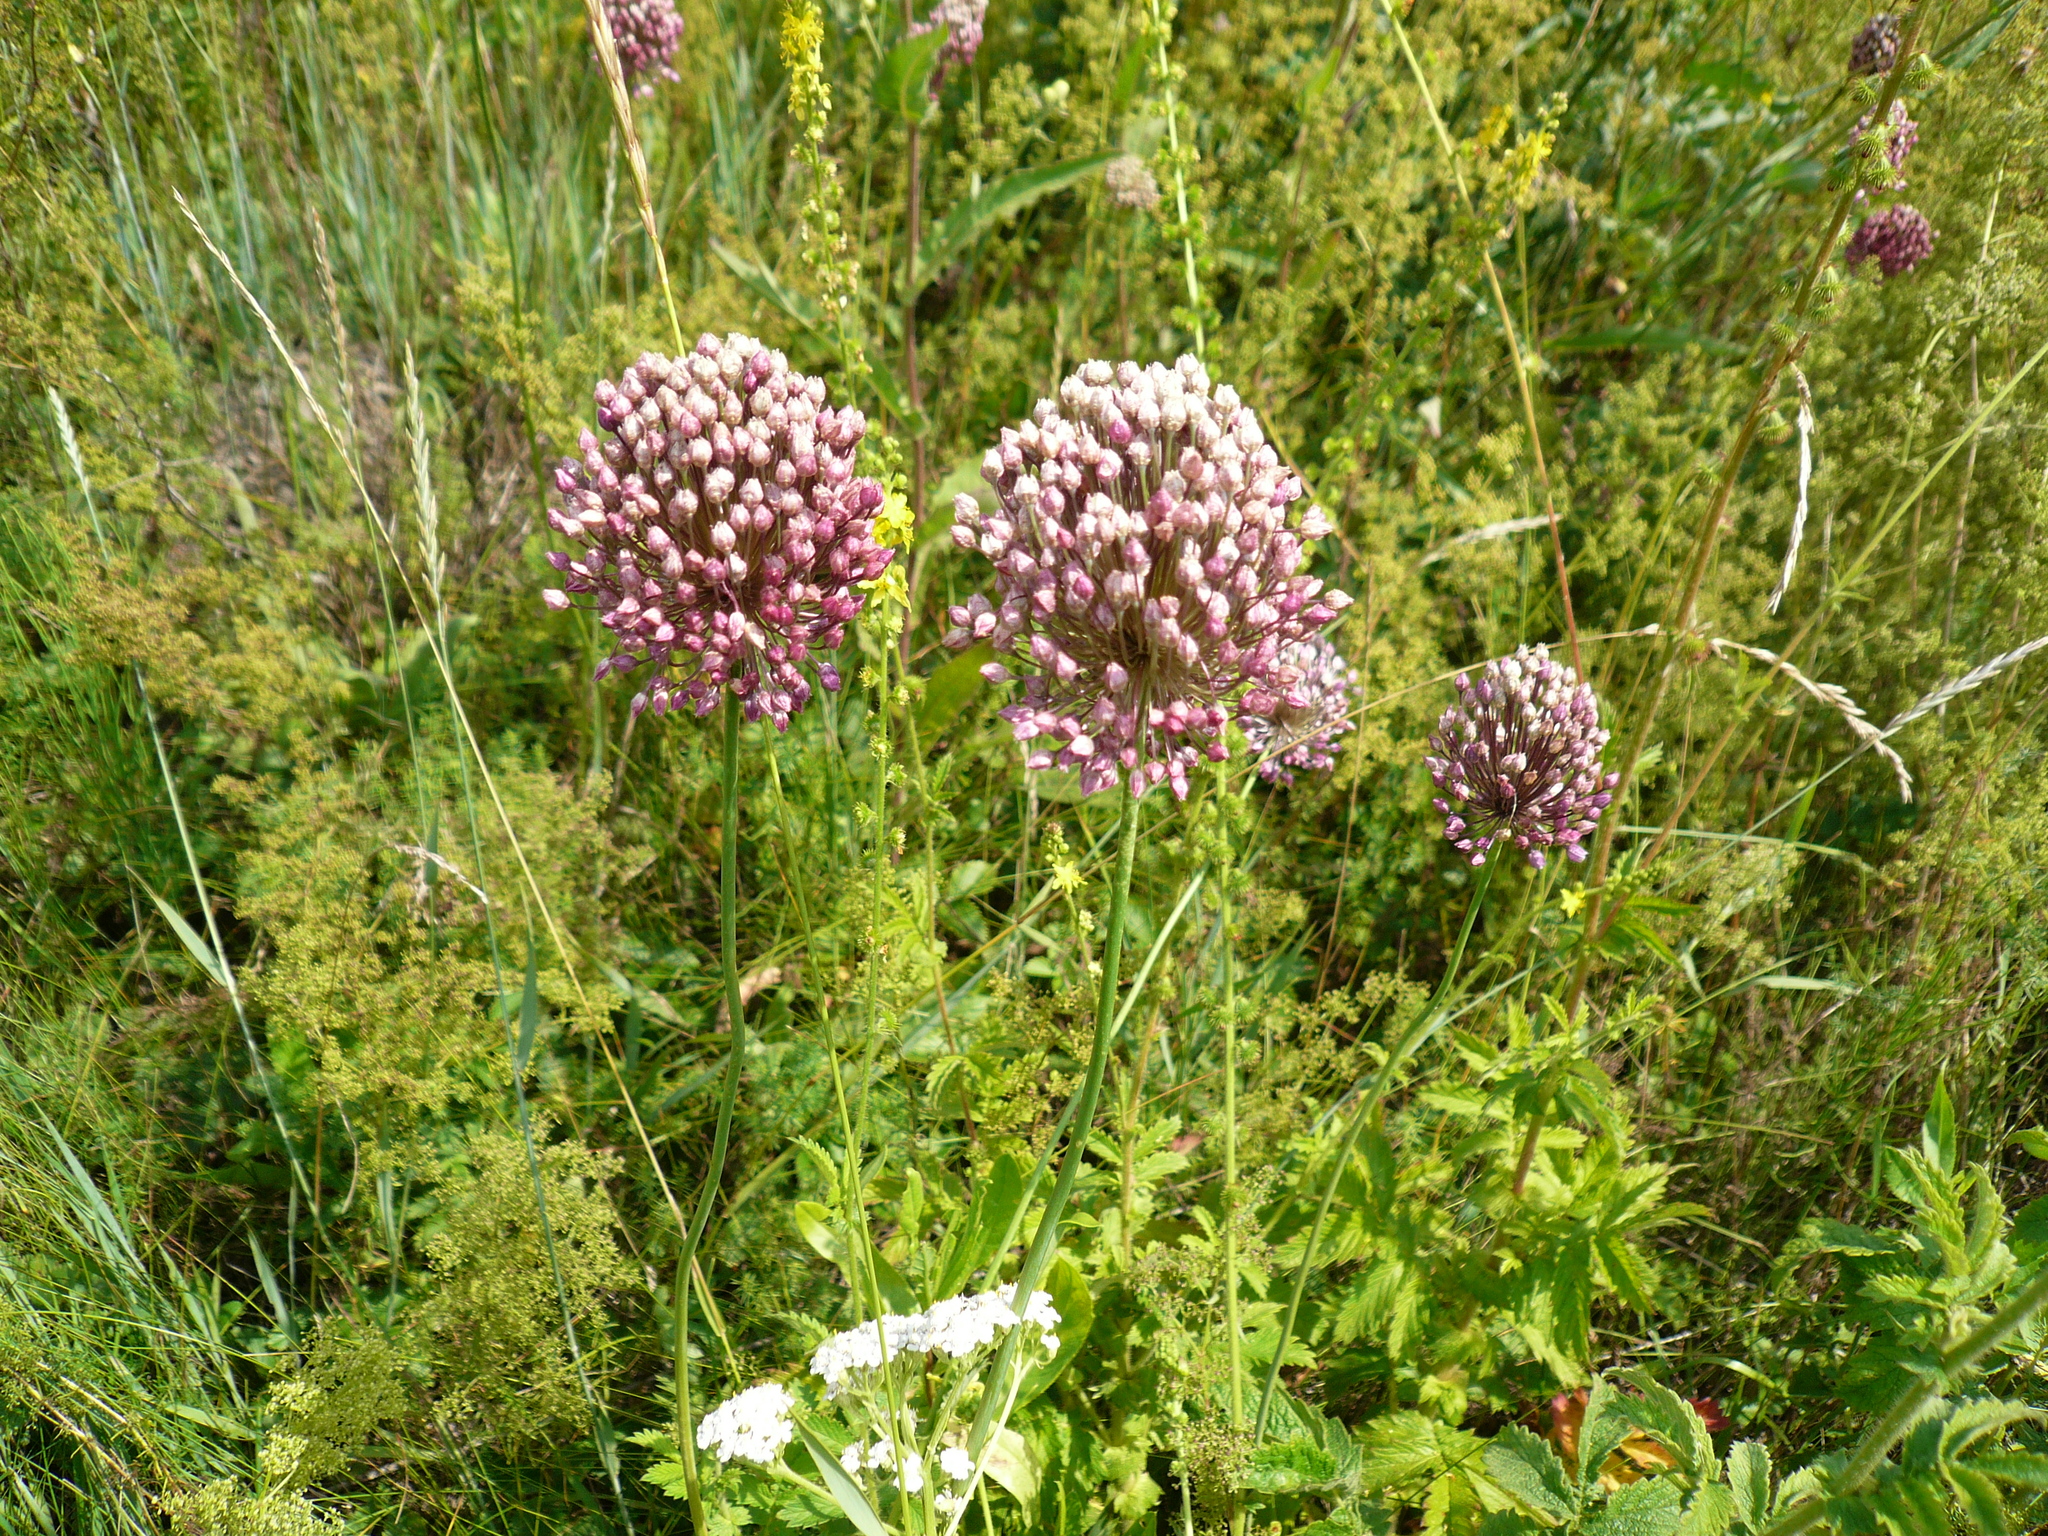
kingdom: Plantae
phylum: Tracheophyta
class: Liliopsida
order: Asparagales
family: Amaryllidaceae
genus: Allium
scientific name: Allium rotundum
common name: Sand leek
